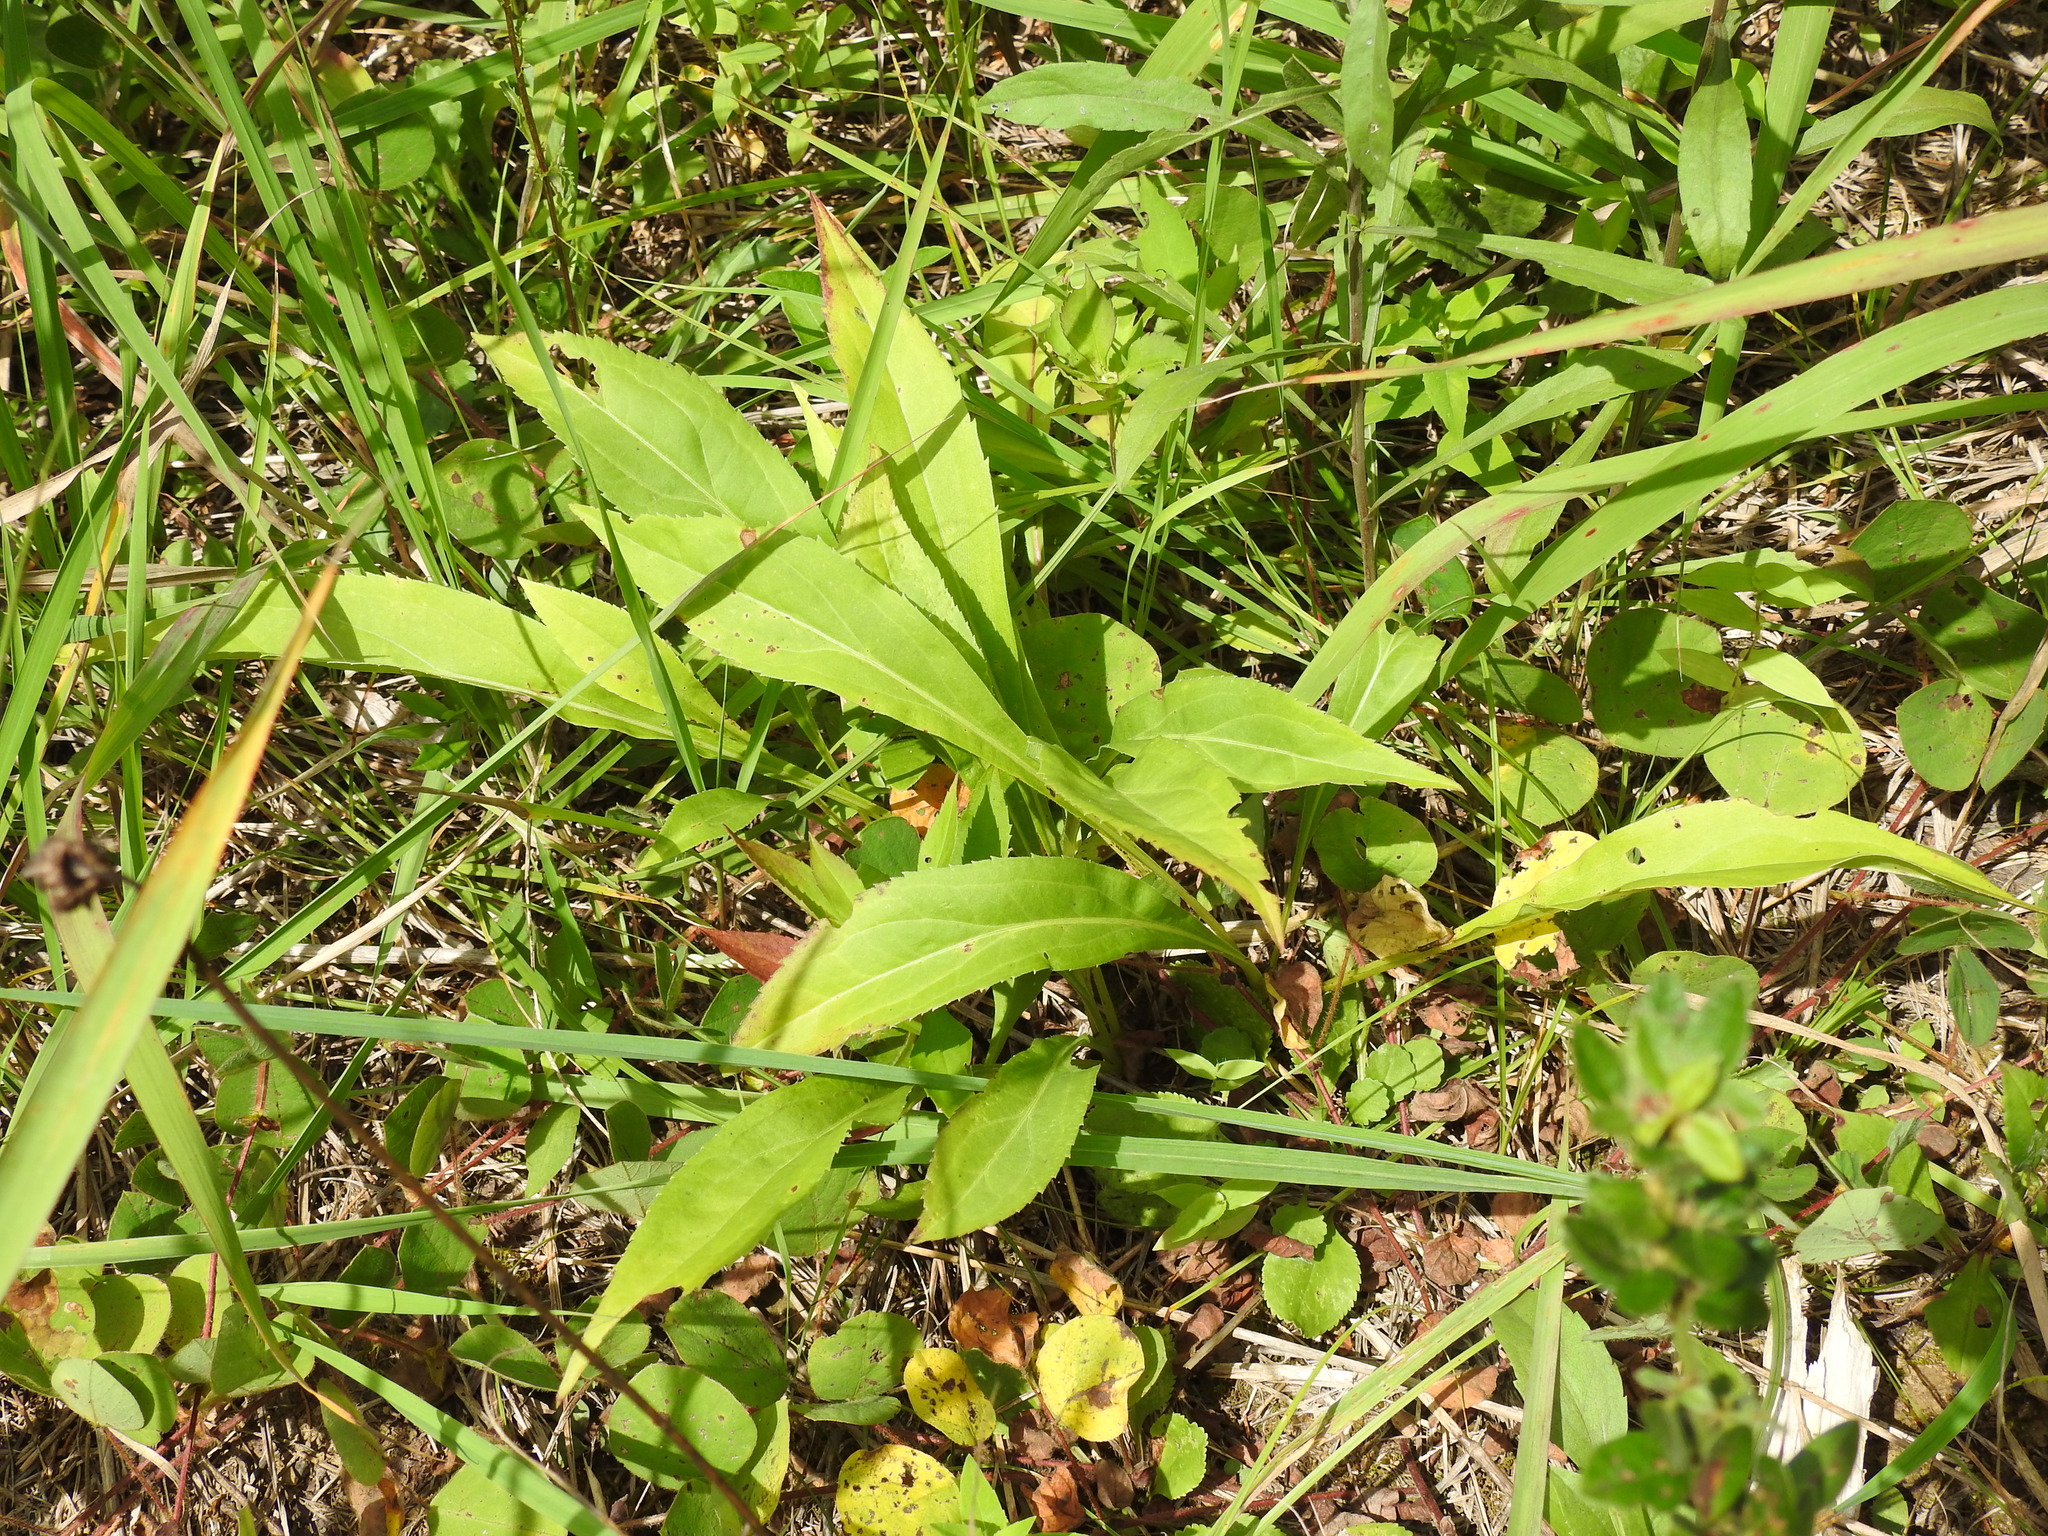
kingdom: Plantae
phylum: Tracheophyta
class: Magnoliopsida
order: Asterales
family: Asteraceae
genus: Solidago
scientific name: Solidago juncea
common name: Early goldenrod
